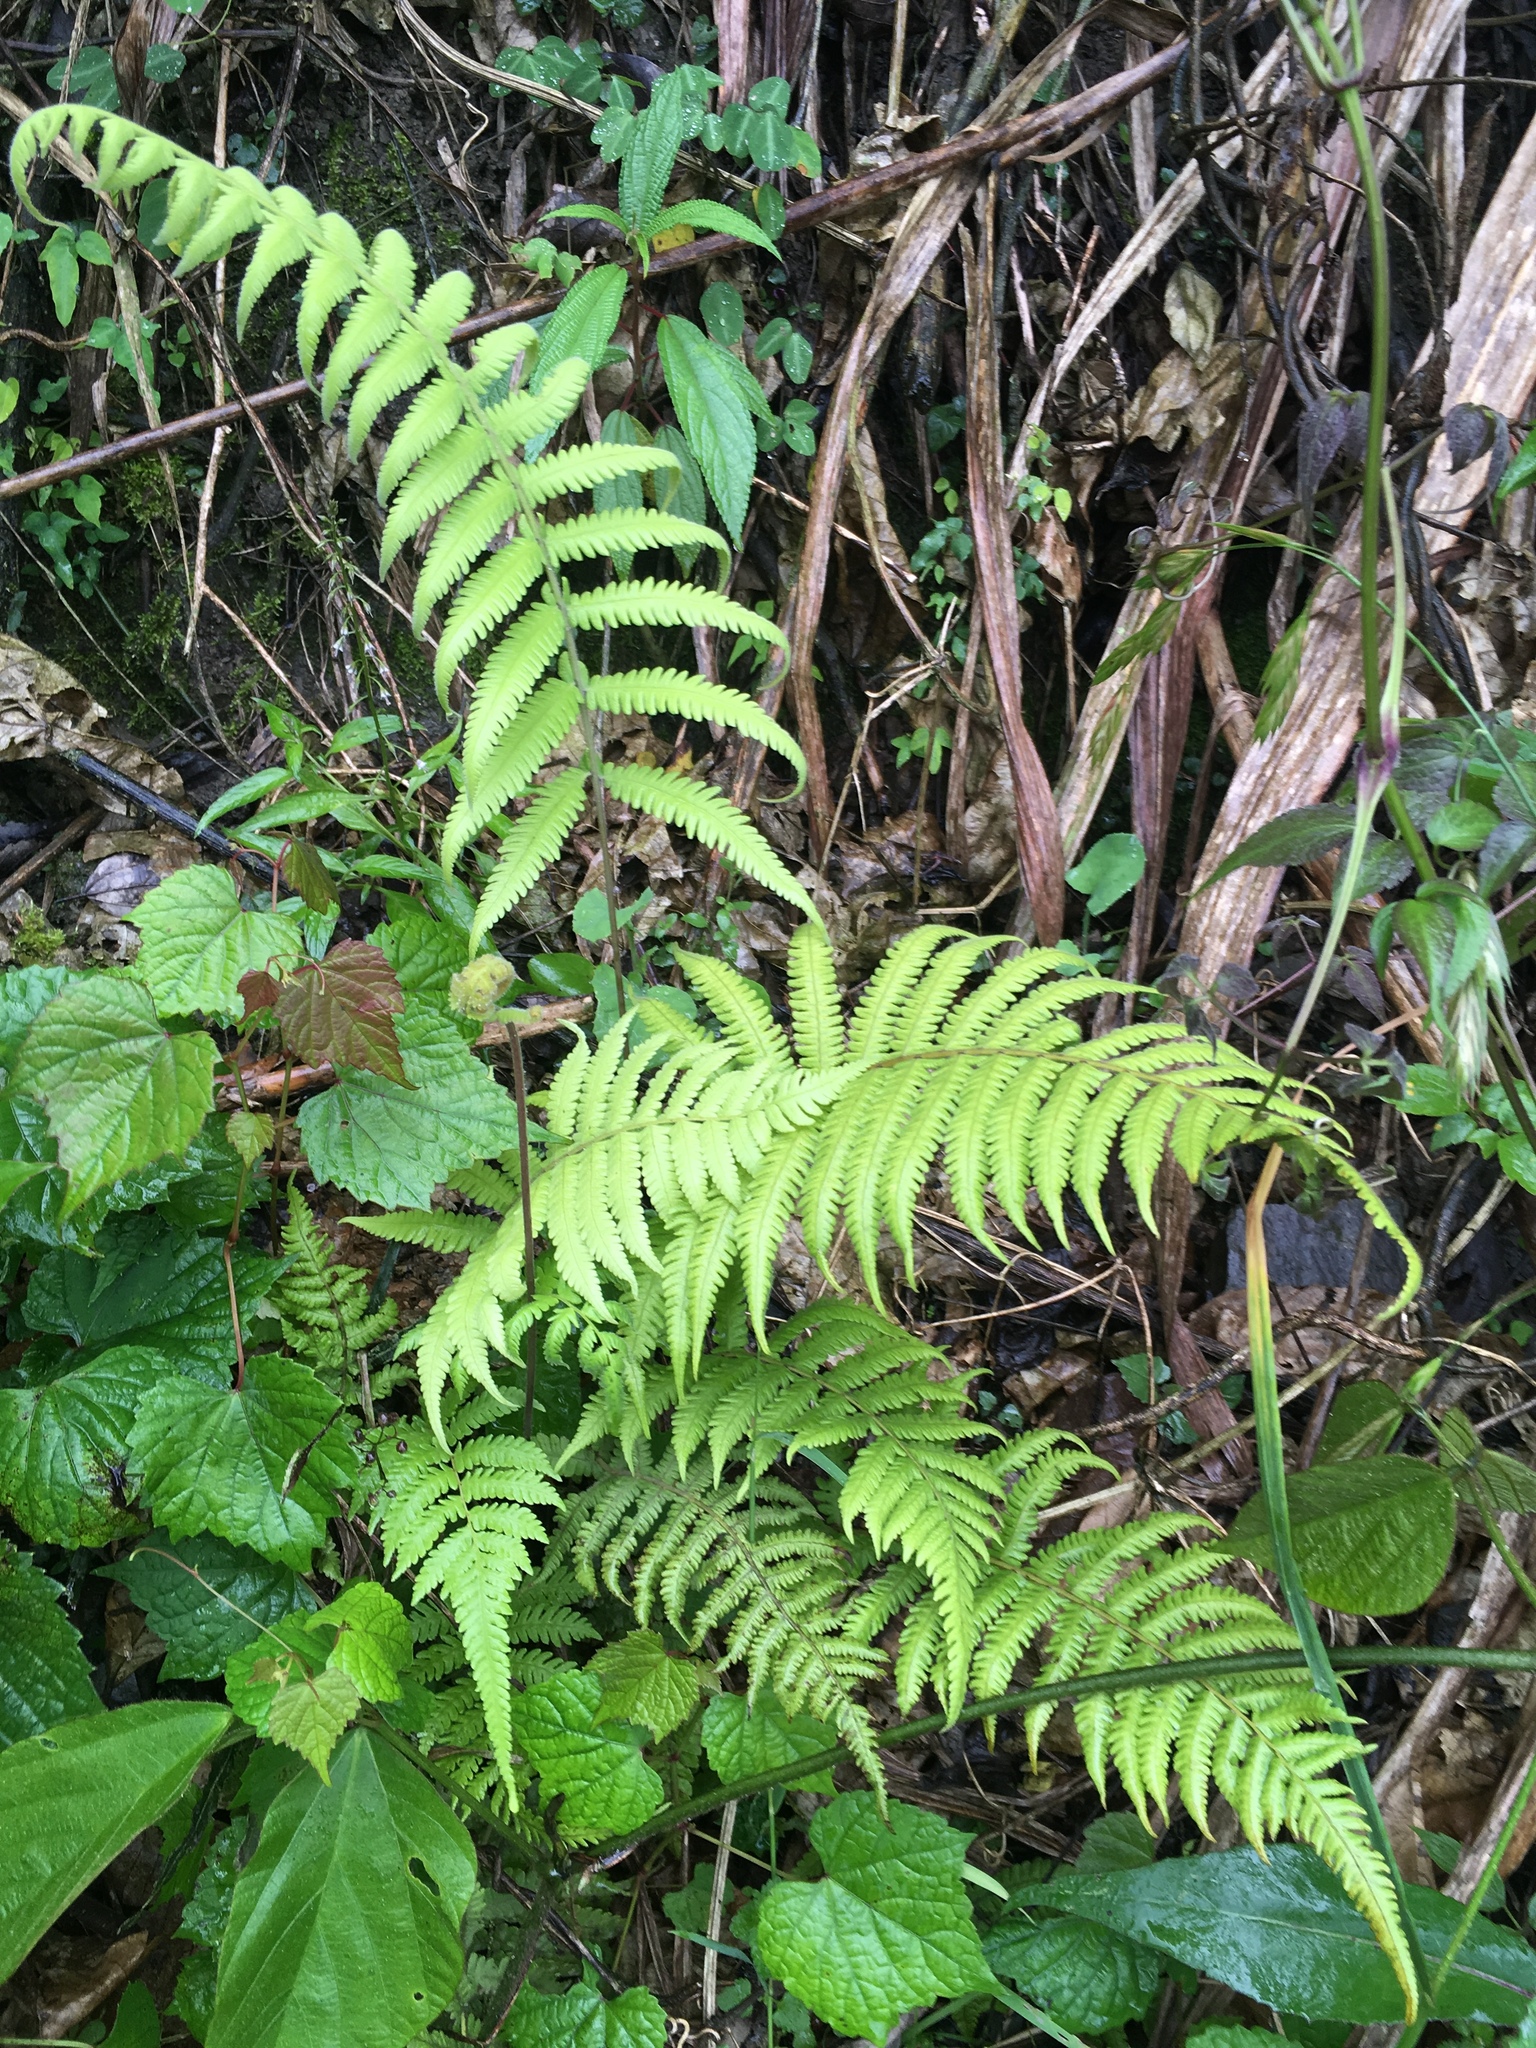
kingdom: Plantae
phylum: Tracheophyta
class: Polypodiopsida
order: Polypodiales
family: Thelypteridaceae
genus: Christella
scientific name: Christella parasitica
